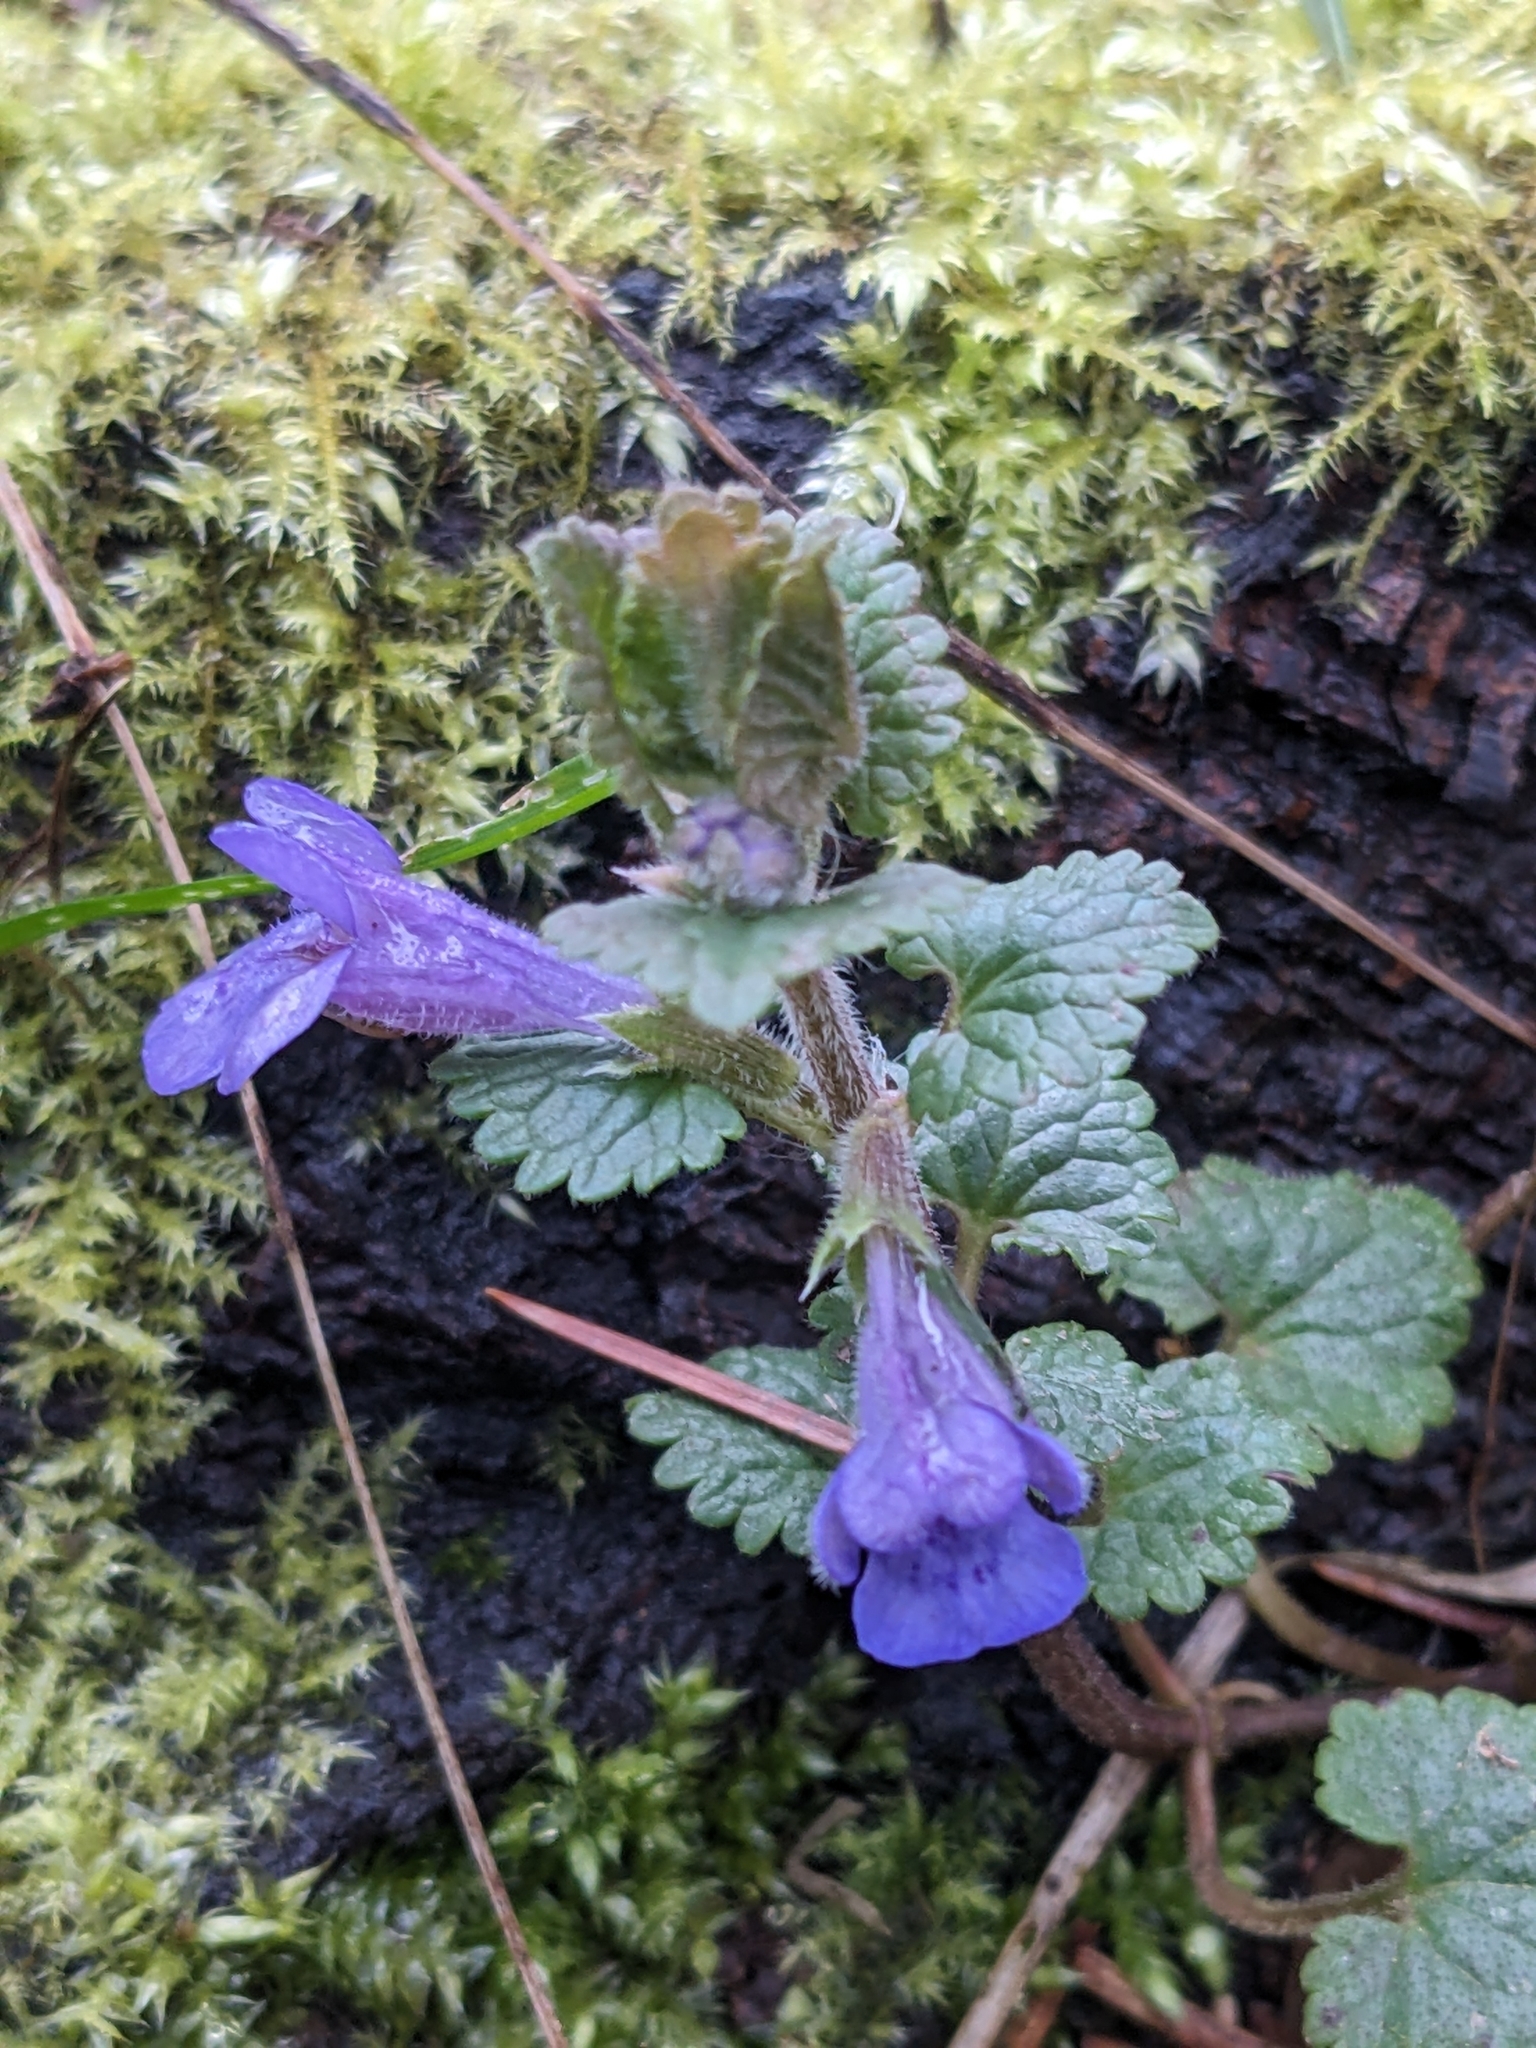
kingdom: Plantae
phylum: Tracheophyta
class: Magnoliopsida
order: Lamiales
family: Lamiaceae
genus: Glechoma
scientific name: Glechoma hederacea
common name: Ground ivy
